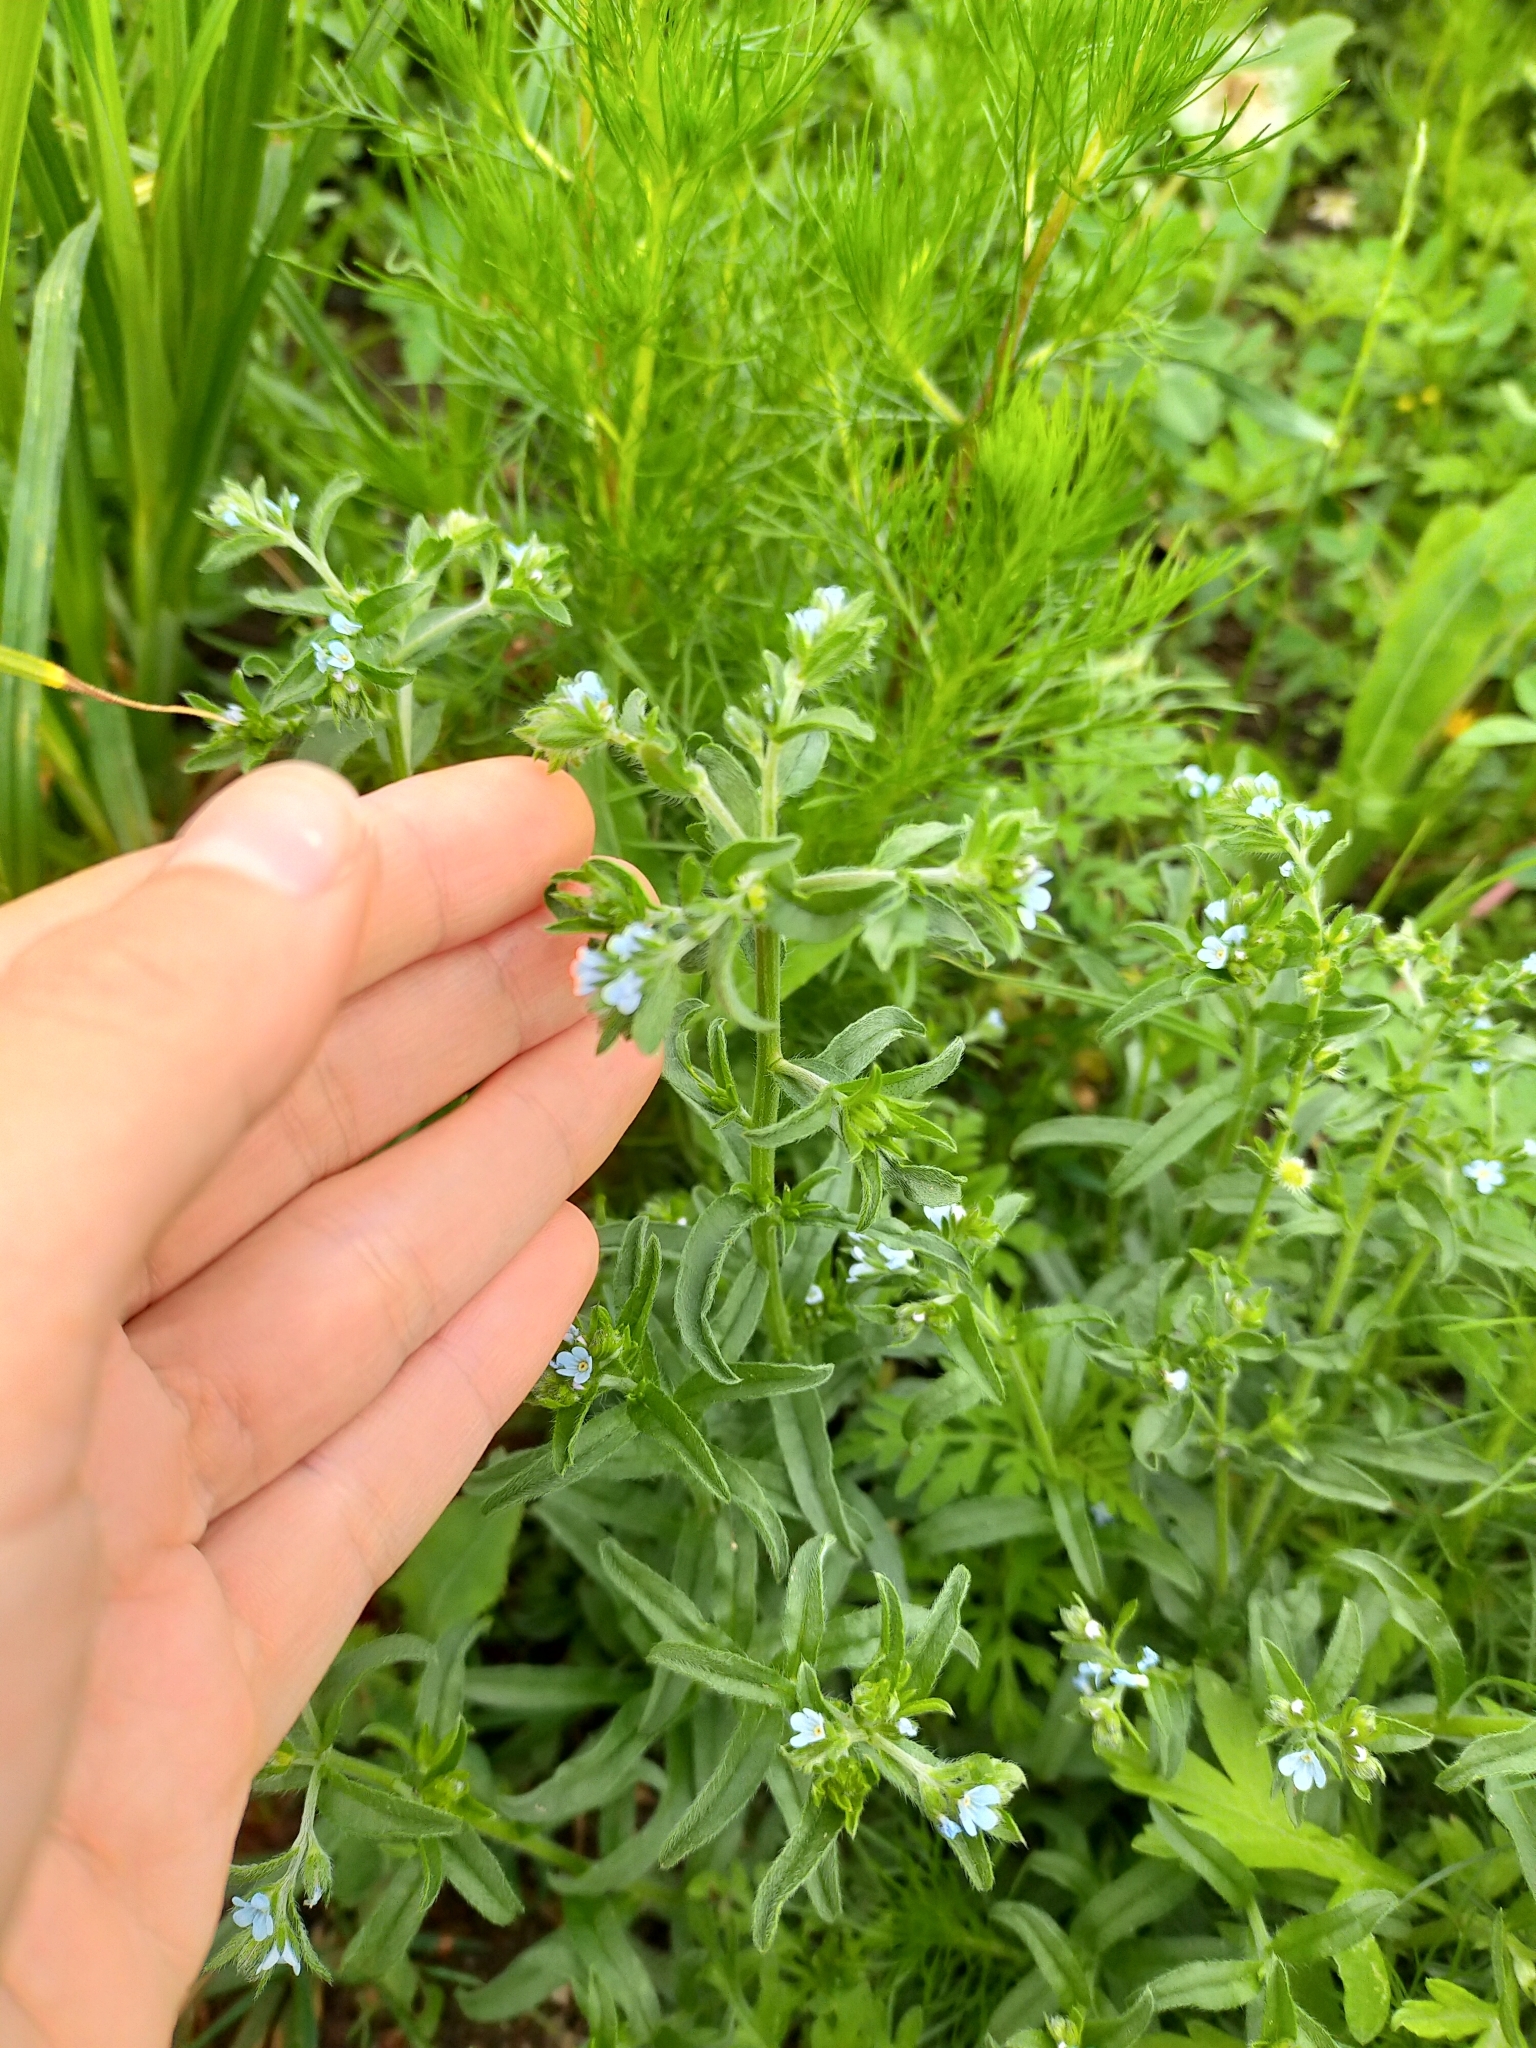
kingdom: Plantae
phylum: Tracheophyta
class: Magnoliopsida
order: Boraginales
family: Boraginaceae
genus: Lappula
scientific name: Lappula squarrosa
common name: European stickseed
